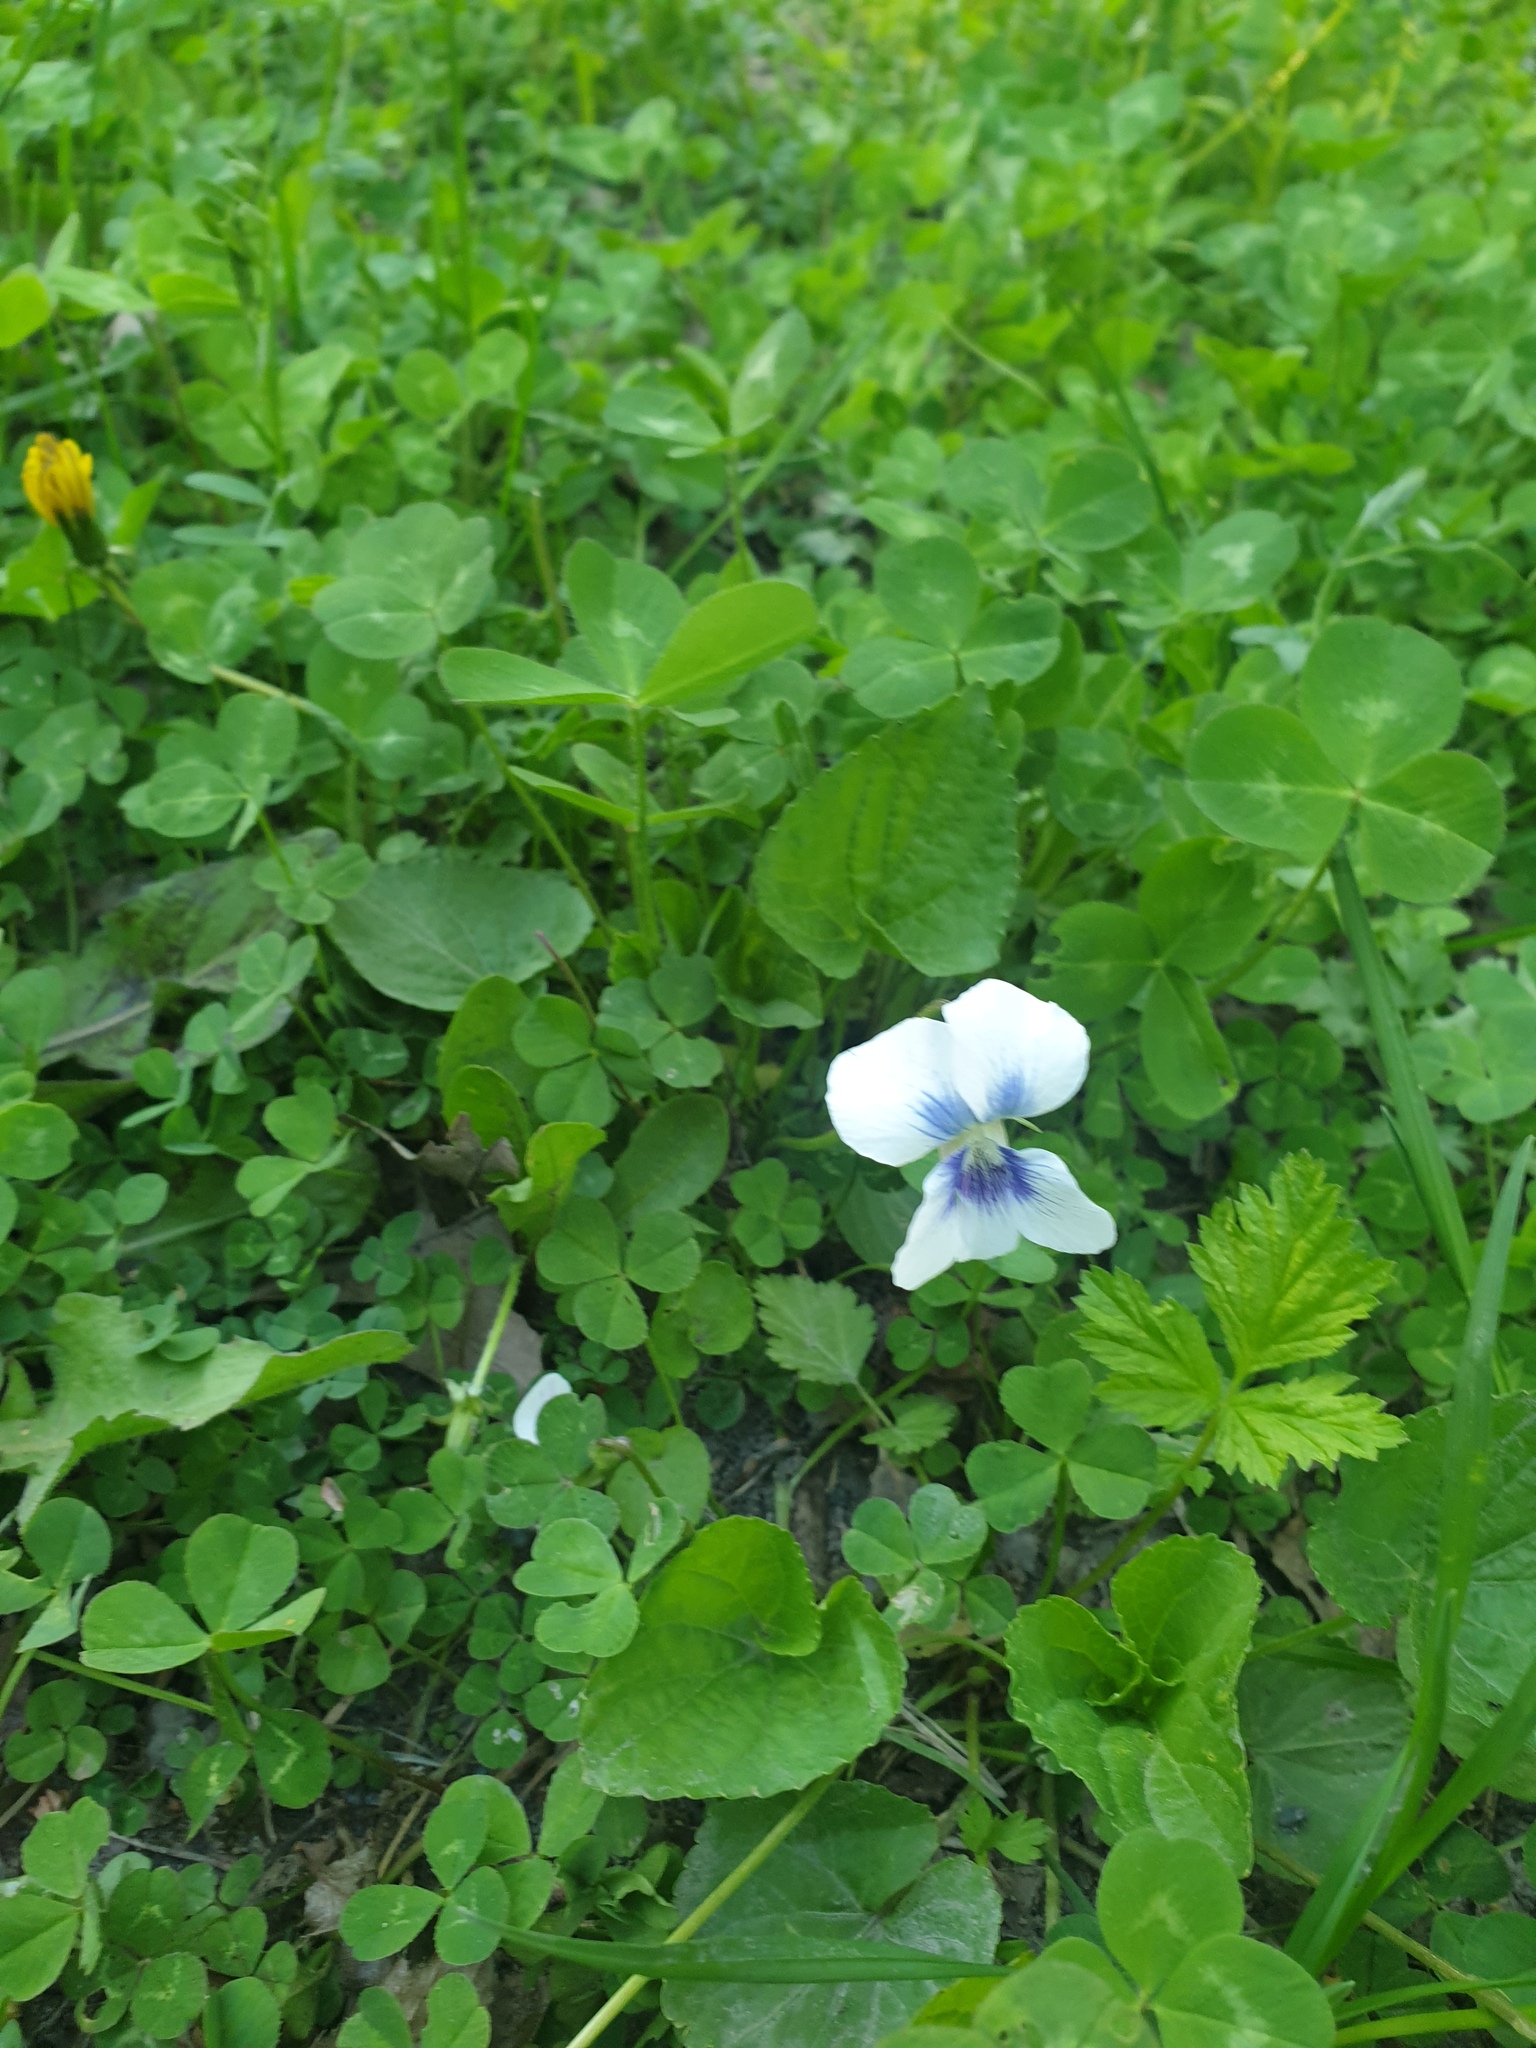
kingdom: Plantae
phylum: Tracheophyta
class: Magnoliopsida
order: Malpighiales
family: Violaceae
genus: Viola
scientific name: Viola sororia
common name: Dooryard violet
